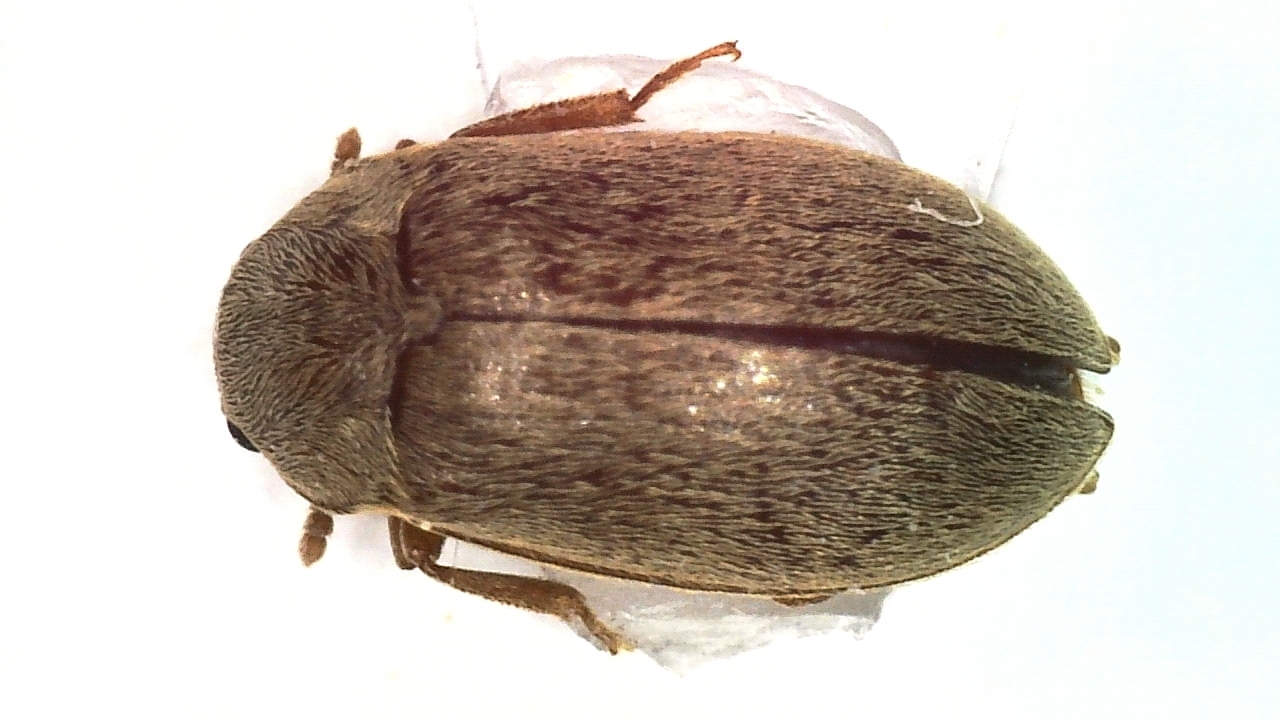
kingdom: Animalia
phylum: Arthropoda
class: Insecta
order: Coleoptera
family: Byturidae
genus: Byturus
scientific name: Byturus tomentosus
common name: Beetle
